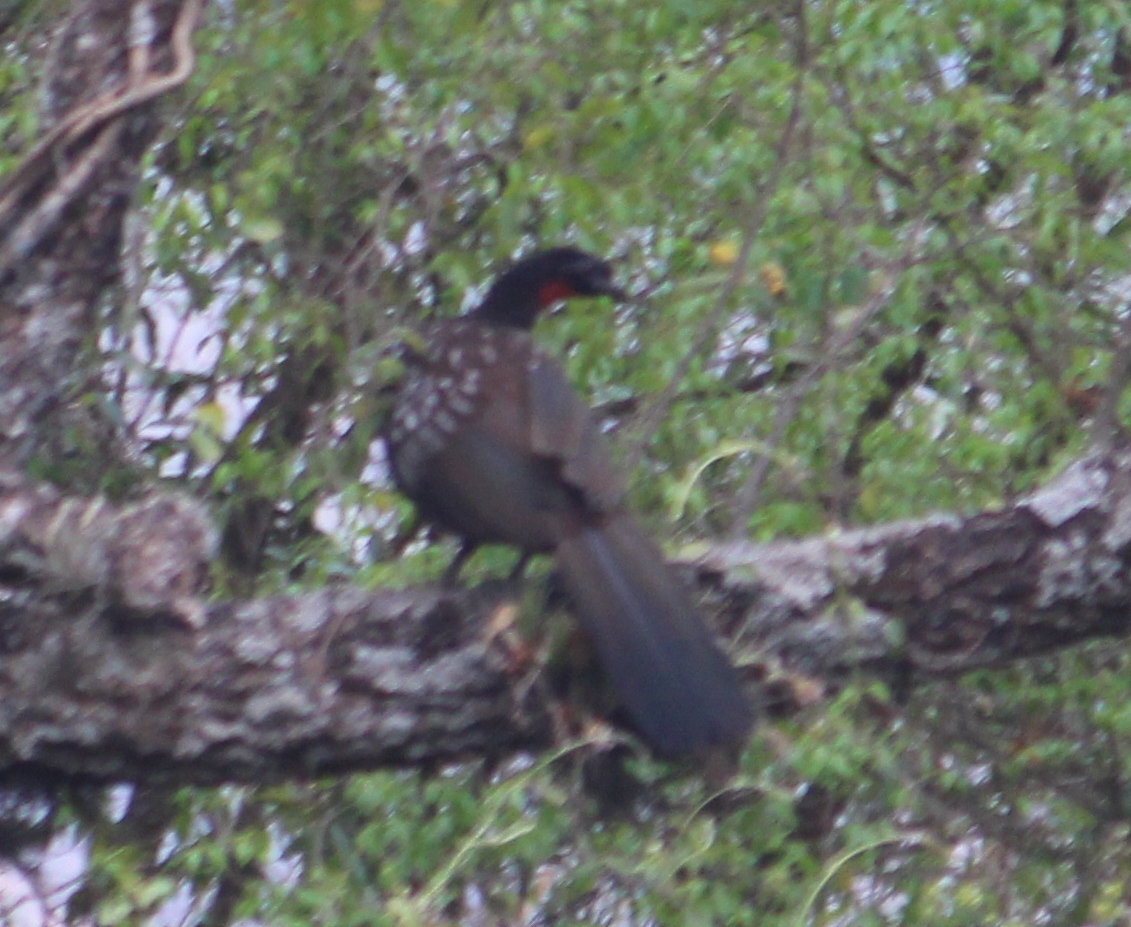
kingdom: Animalia
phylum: Chordata
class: Aves
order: Galliformes
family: Cracidae
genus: Penelope
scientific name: Penelope bridgesi
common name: Yungas guan
